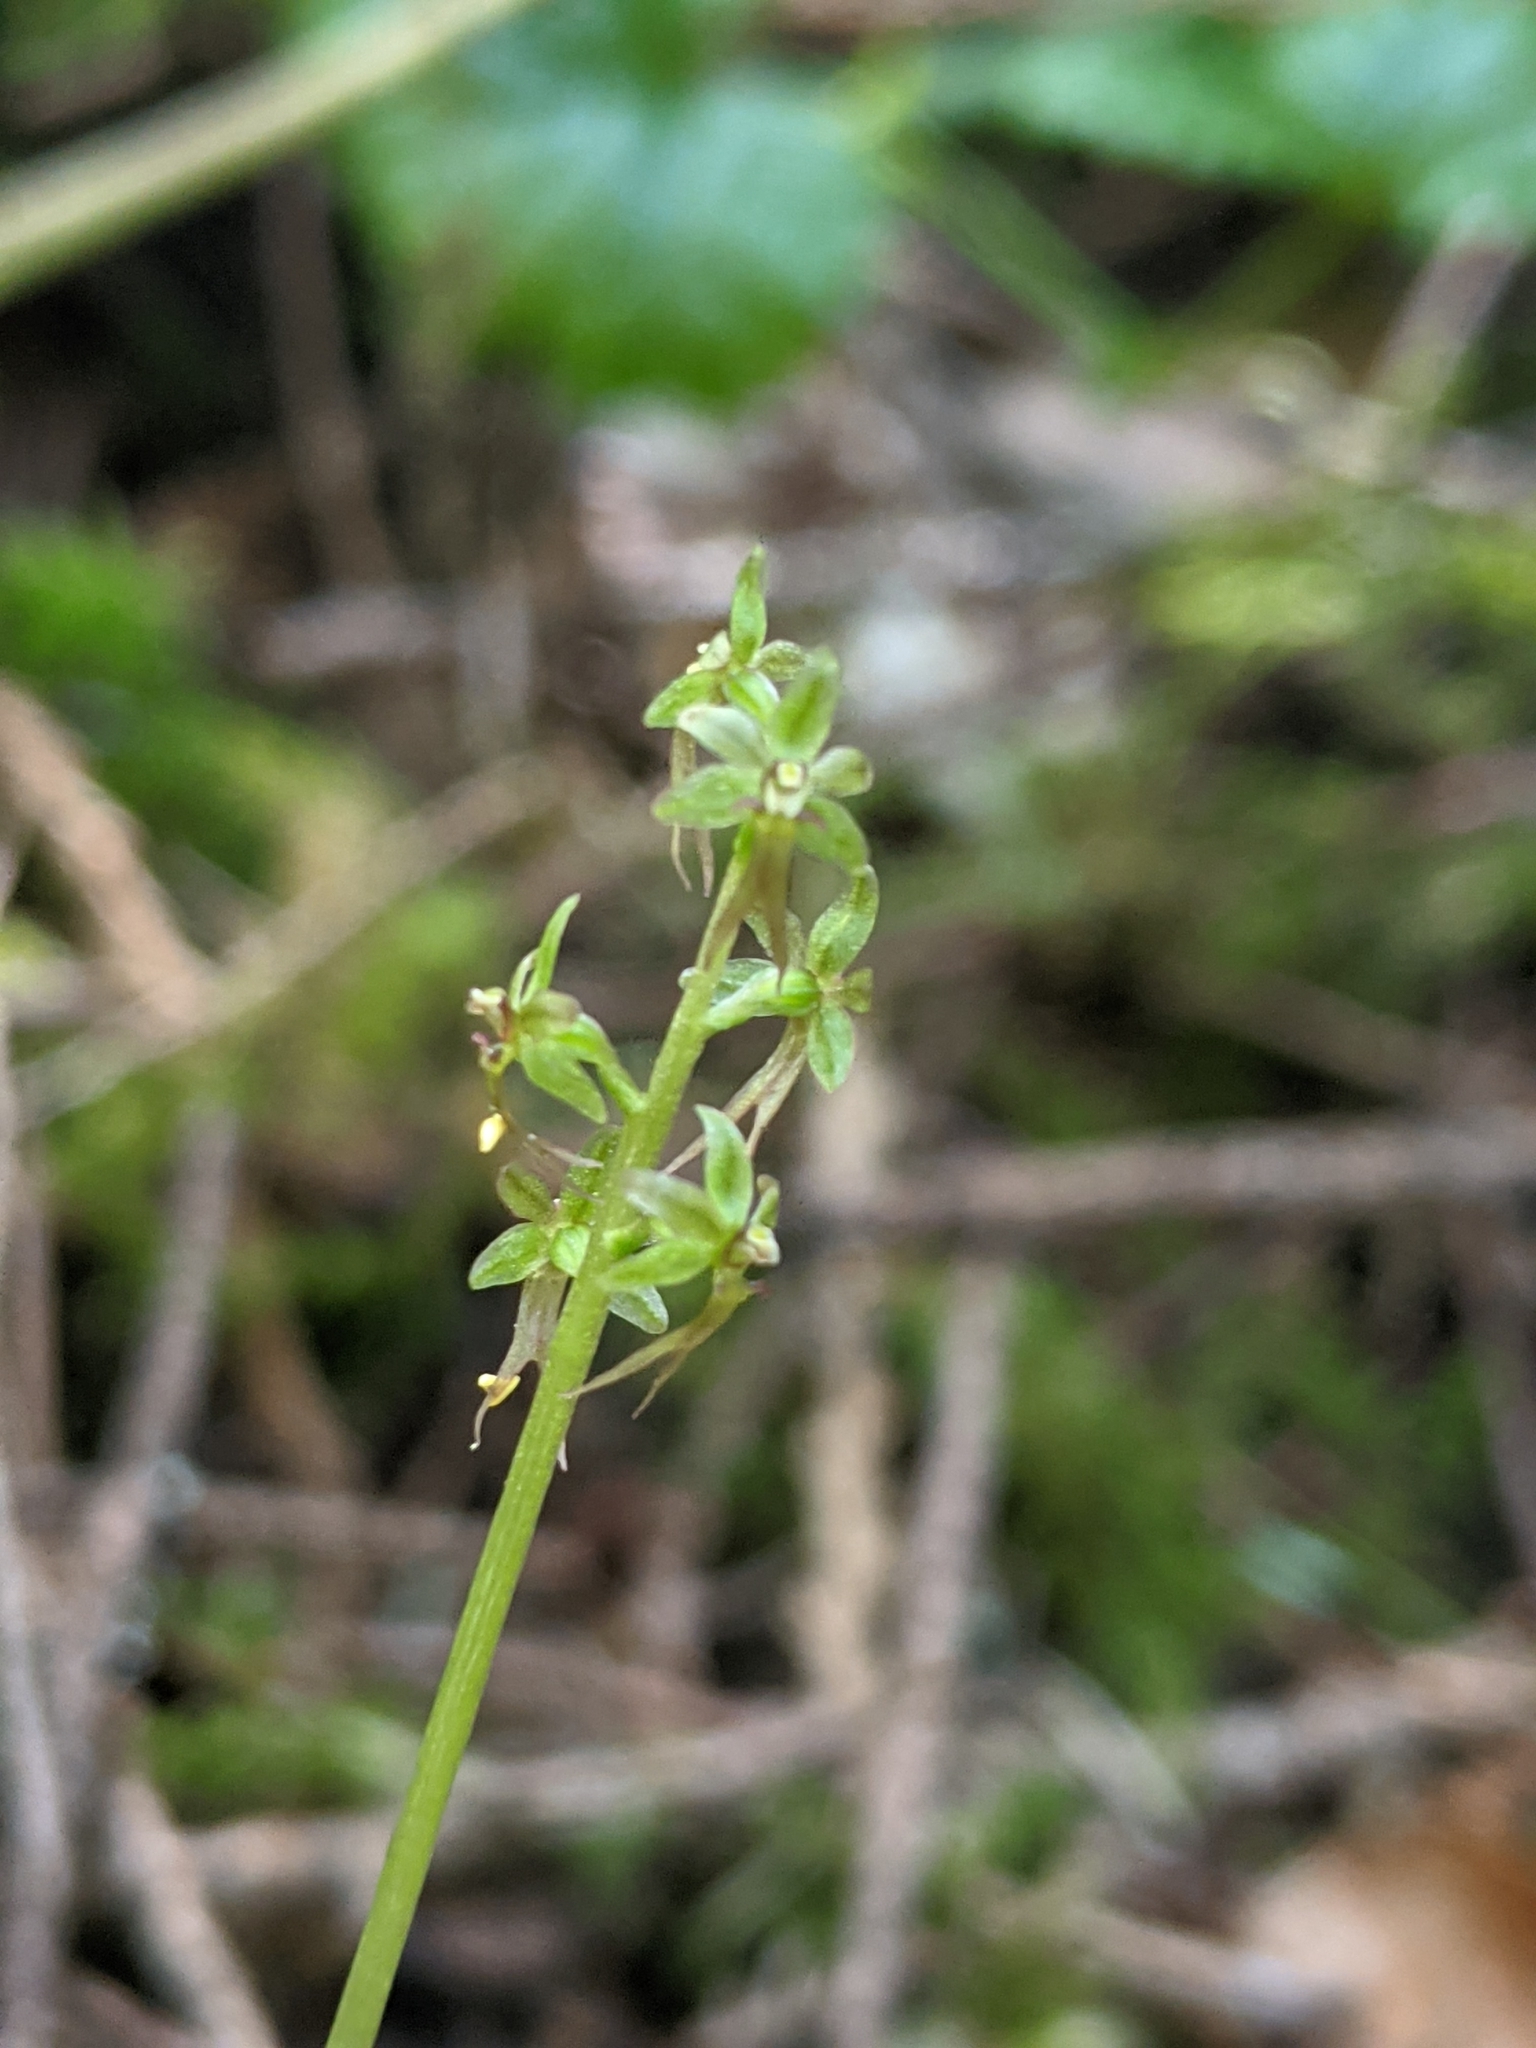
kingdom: Plantae
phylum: Tracheophyta
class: Liliopsida
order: Asparagales
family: Orchidaceae
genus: Neottia
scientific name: Neottia cordata
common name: Lesser twayblade
